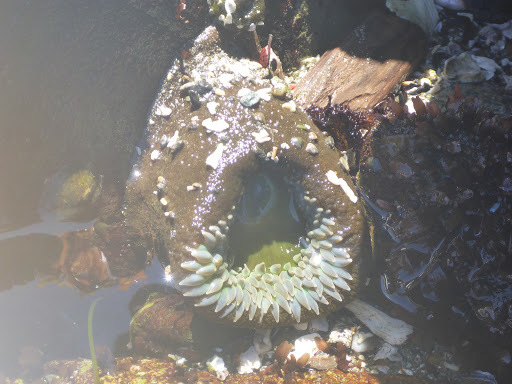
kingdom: Animalia
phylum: Cnidaria
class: Anthozoa
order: Actiniaria
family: Actiniidae
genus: Anthopleura
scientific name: Anthopleura xanthogrammica
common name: Giant green anemone
